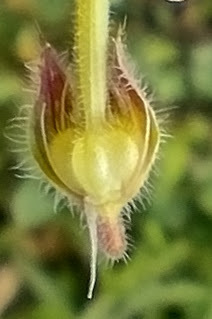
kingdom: Plantae
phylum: Tracheophyta
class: Magnoliopsida
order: Geraniales
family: Geraniaceae
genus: Geranium
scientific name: Geranium molle
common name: Dove's-foot crane's-bill
